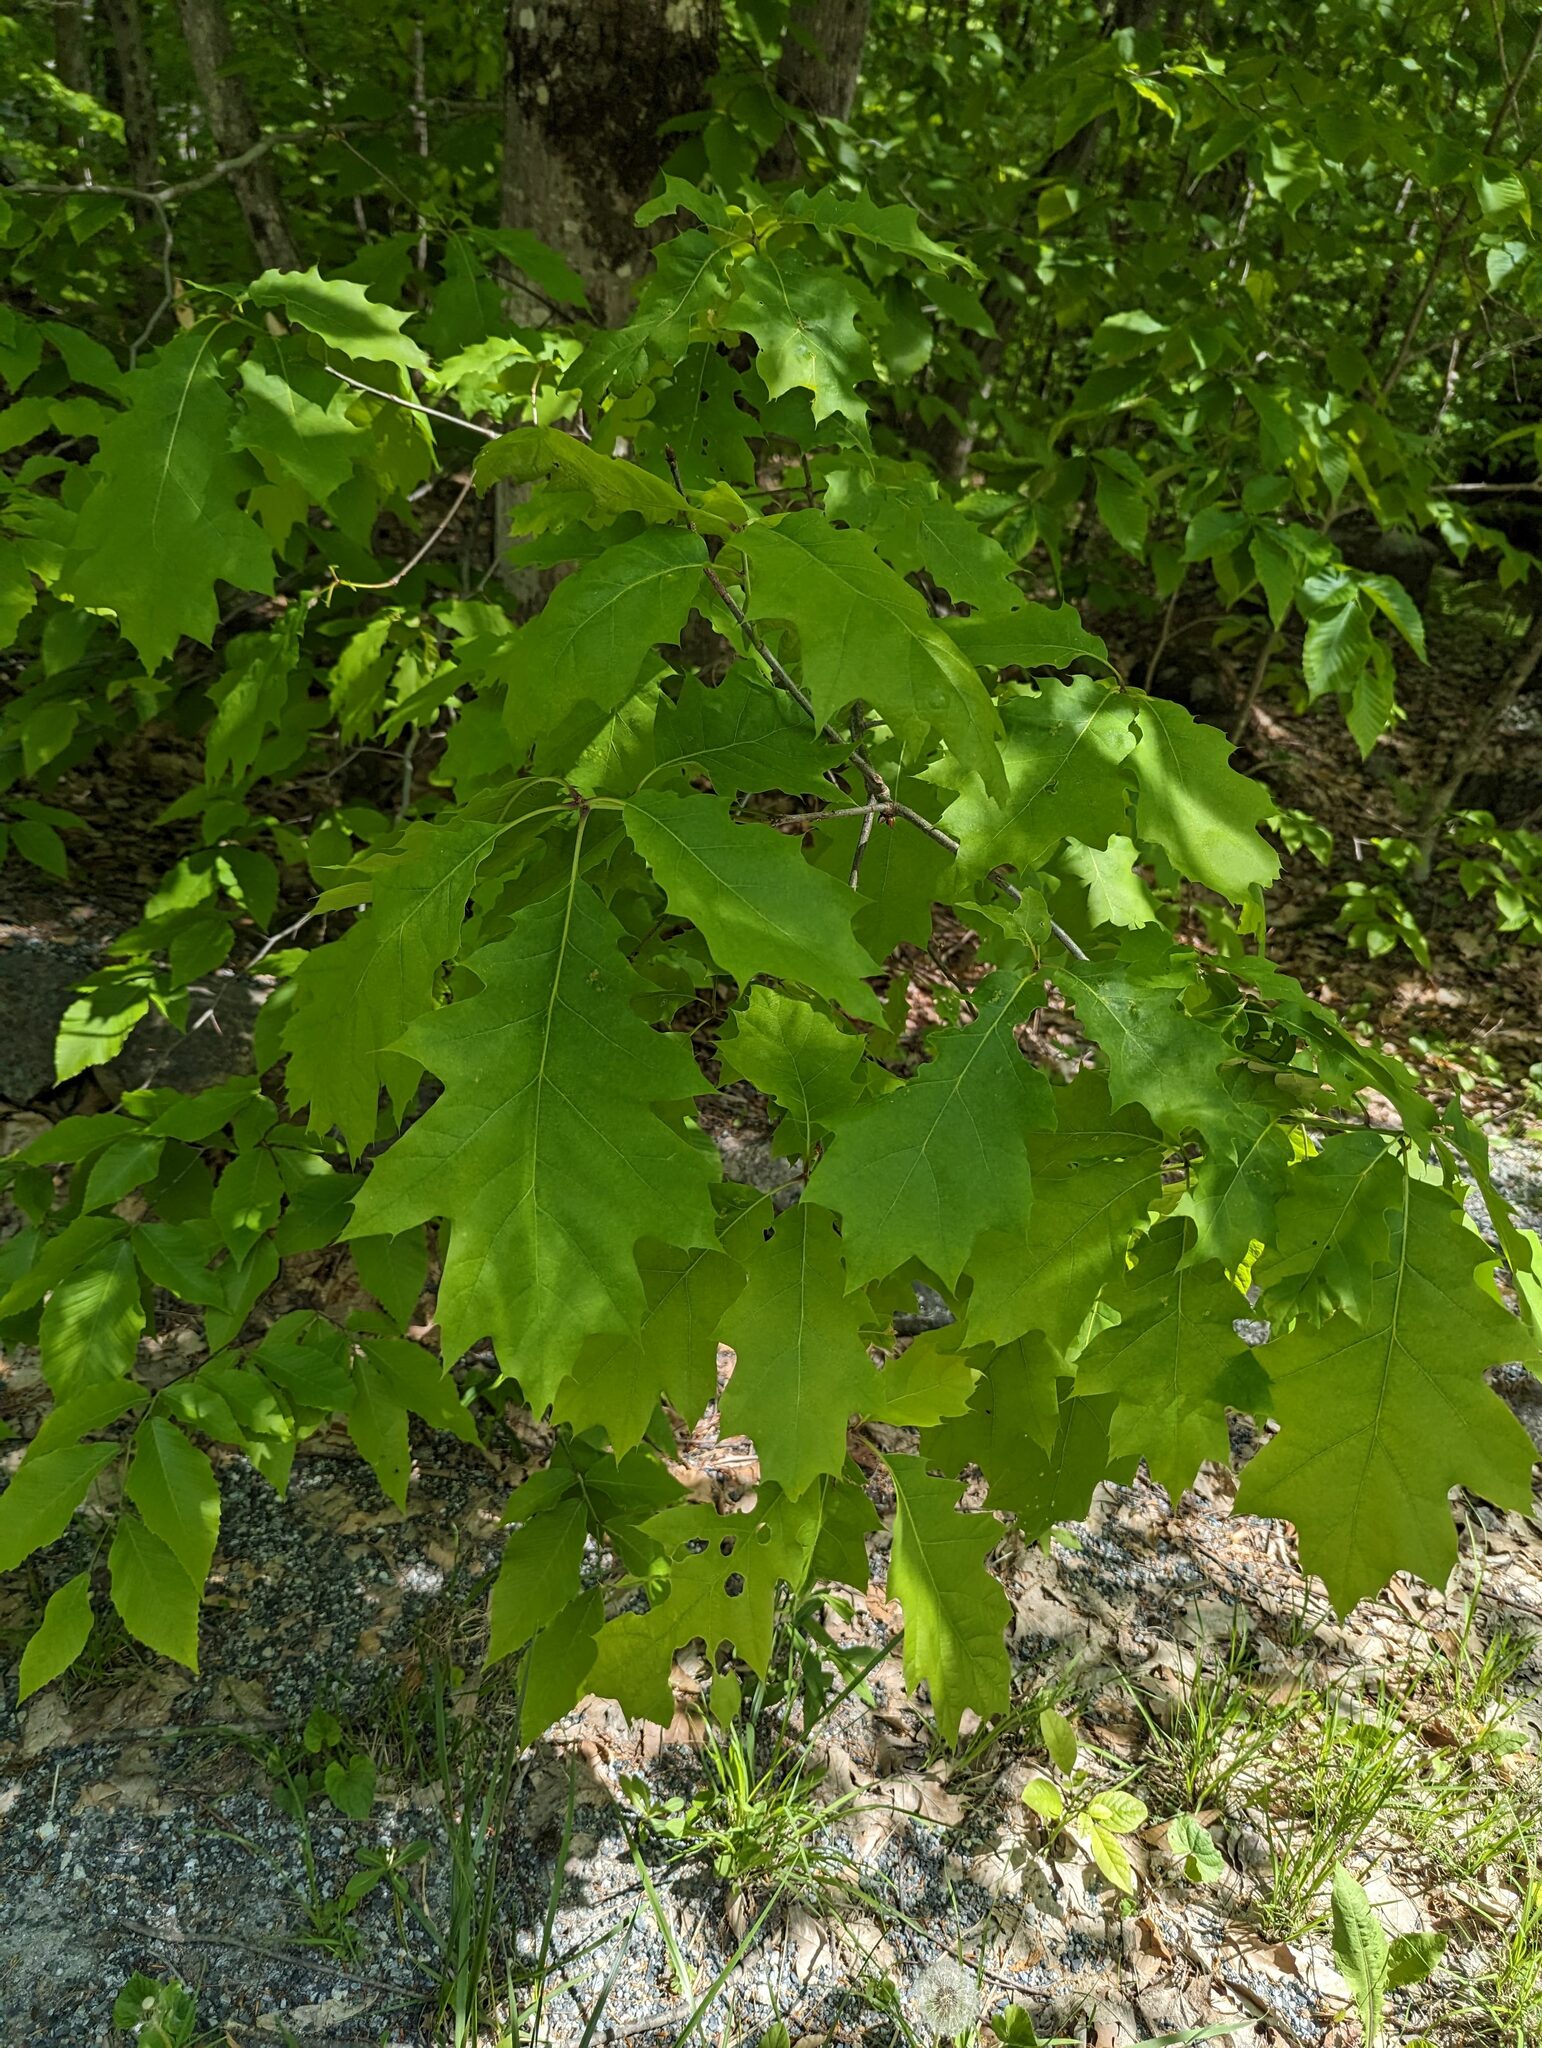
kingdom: Plantae
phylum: Tracheophyta
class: Magnoliopsida
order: Fagales
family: Fagaceae
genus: Quercus
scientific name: Quercus rubra
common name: Red oak
